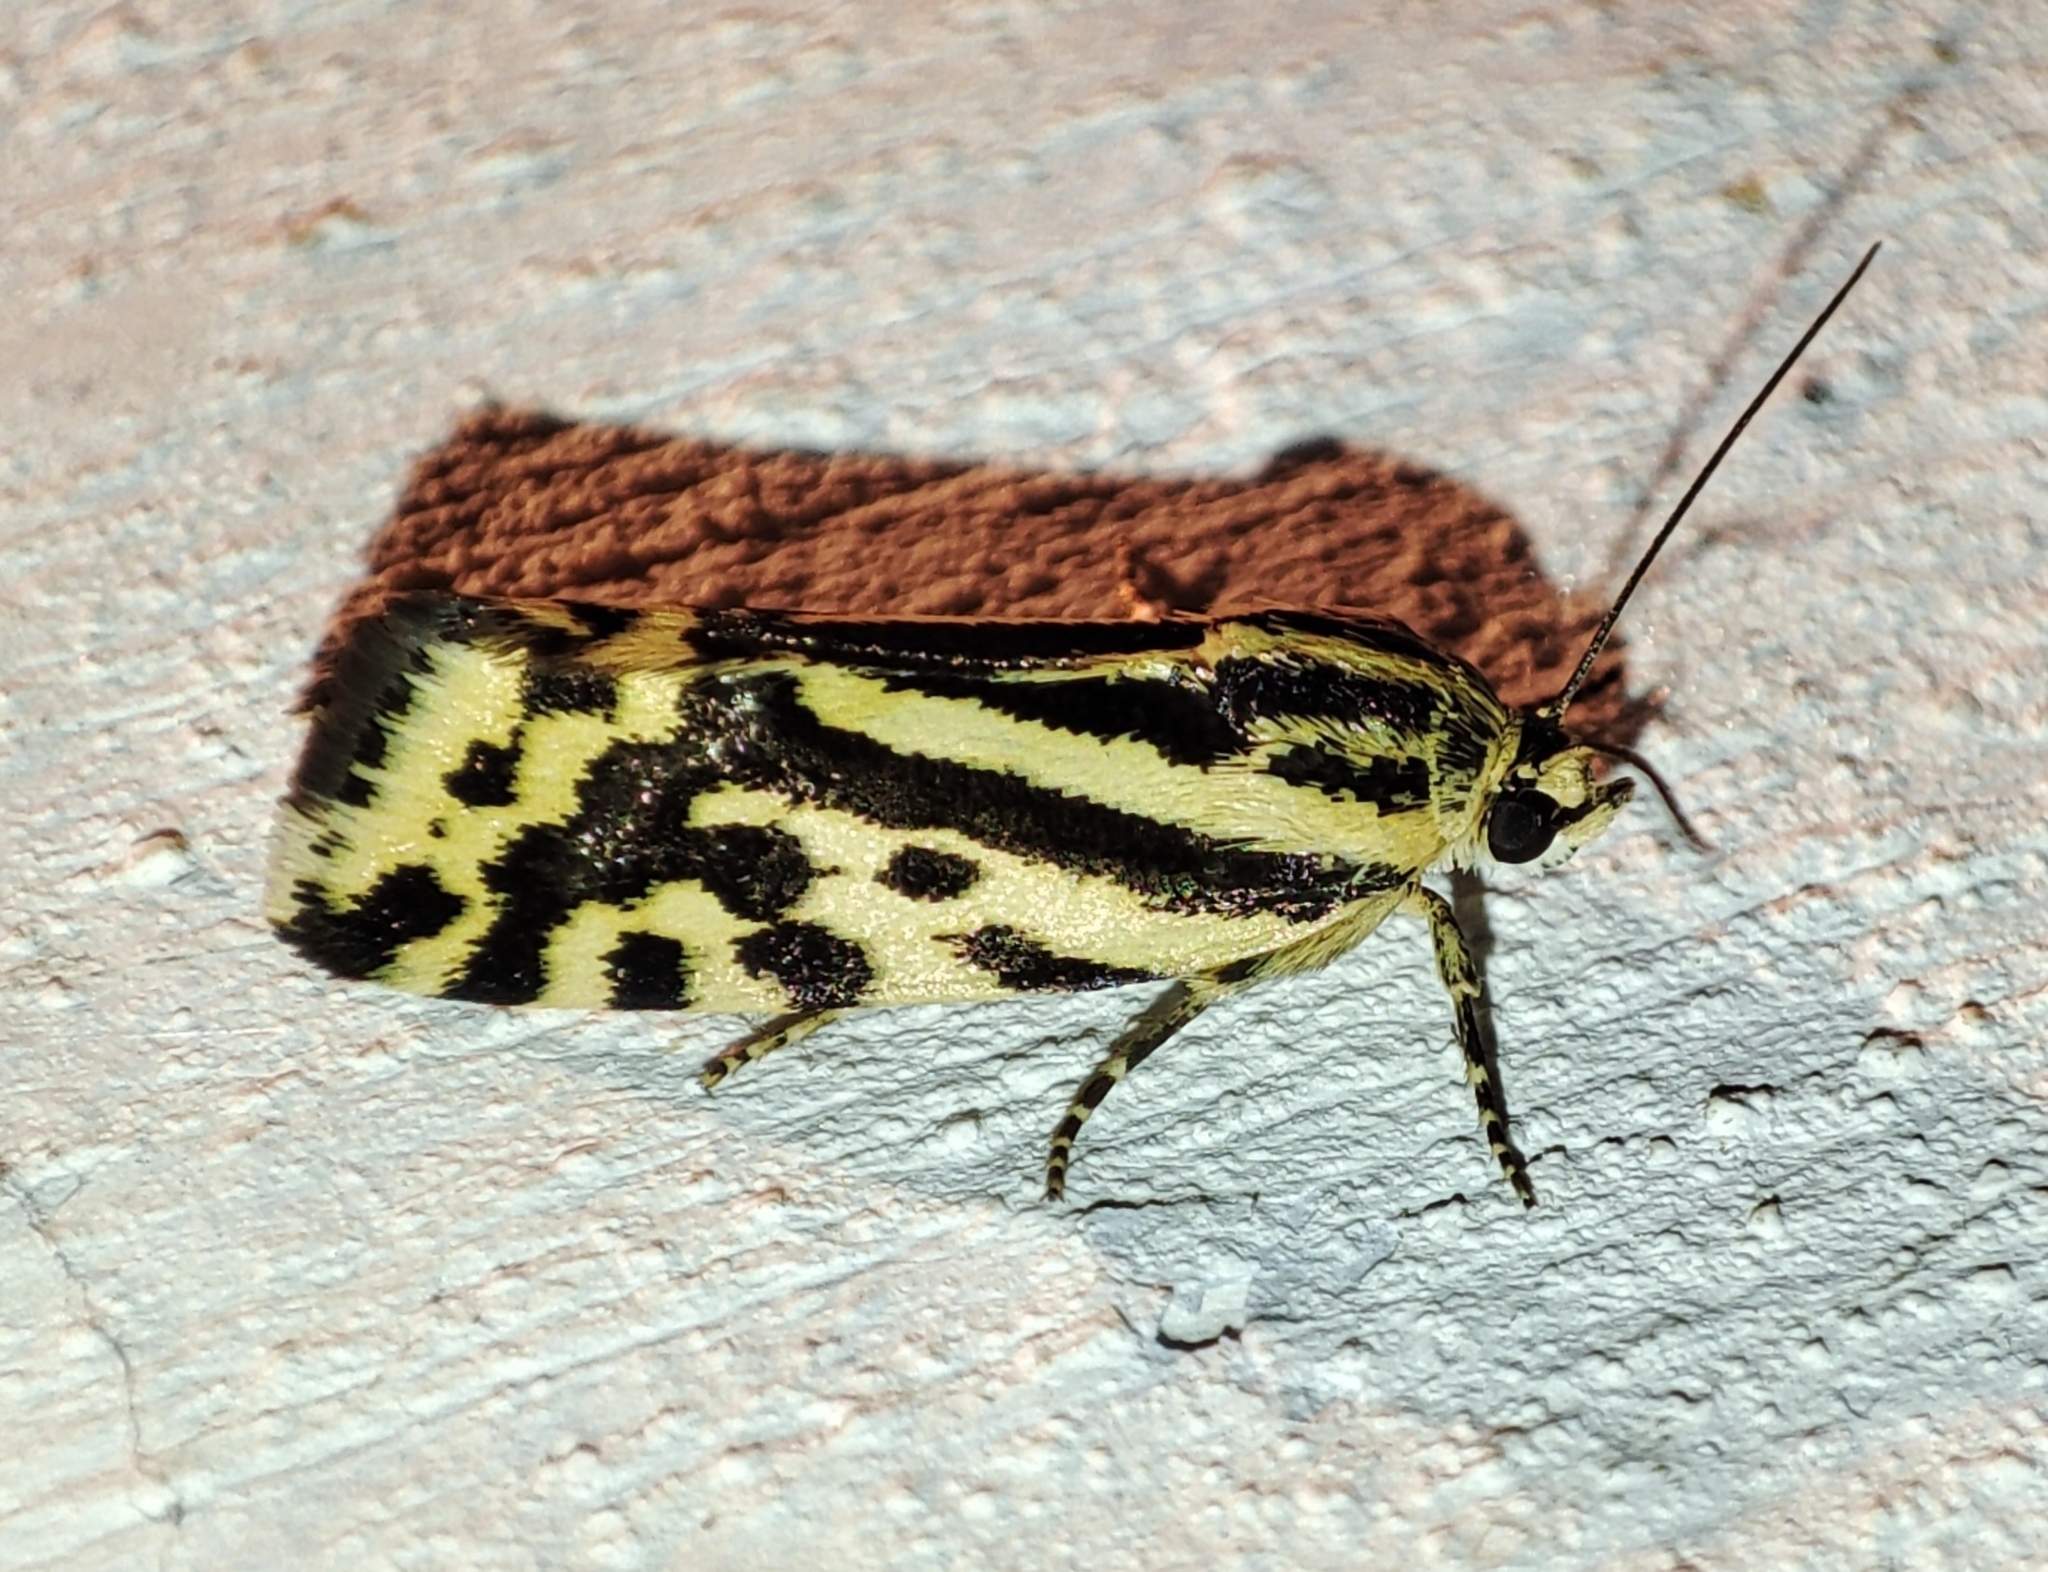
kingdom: Animalia
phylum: Arthropoda
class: Insecta
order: Lepidoptera
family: Noctuidae
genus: Acontia
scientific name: Acontia trabealis
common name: Spotted sulphur
